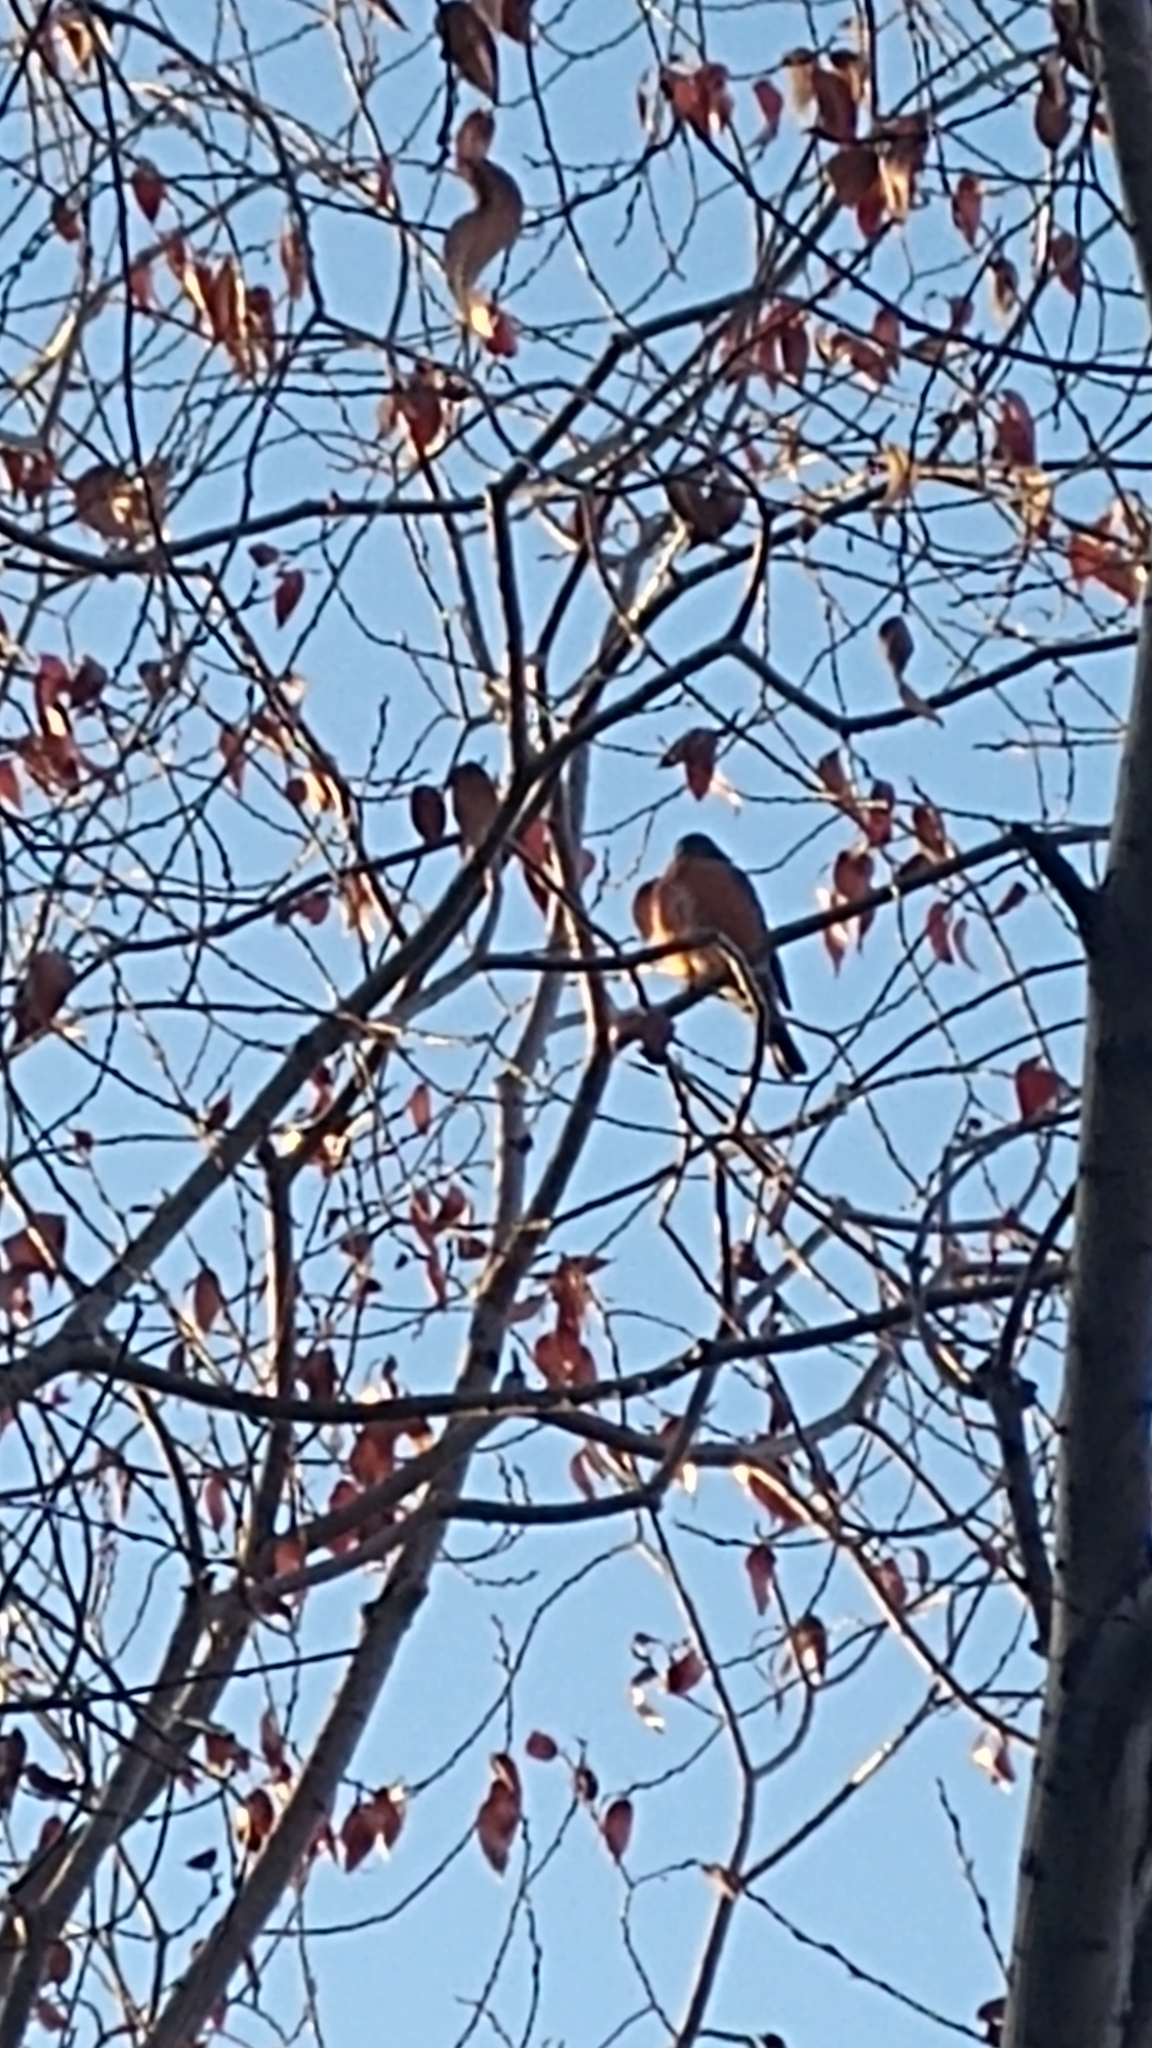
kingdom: Animalia
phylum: Chordata
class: Aves
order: Passeriformes
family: Turdidae
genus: Turdus
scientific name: Turdus migratorius
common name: American robin
